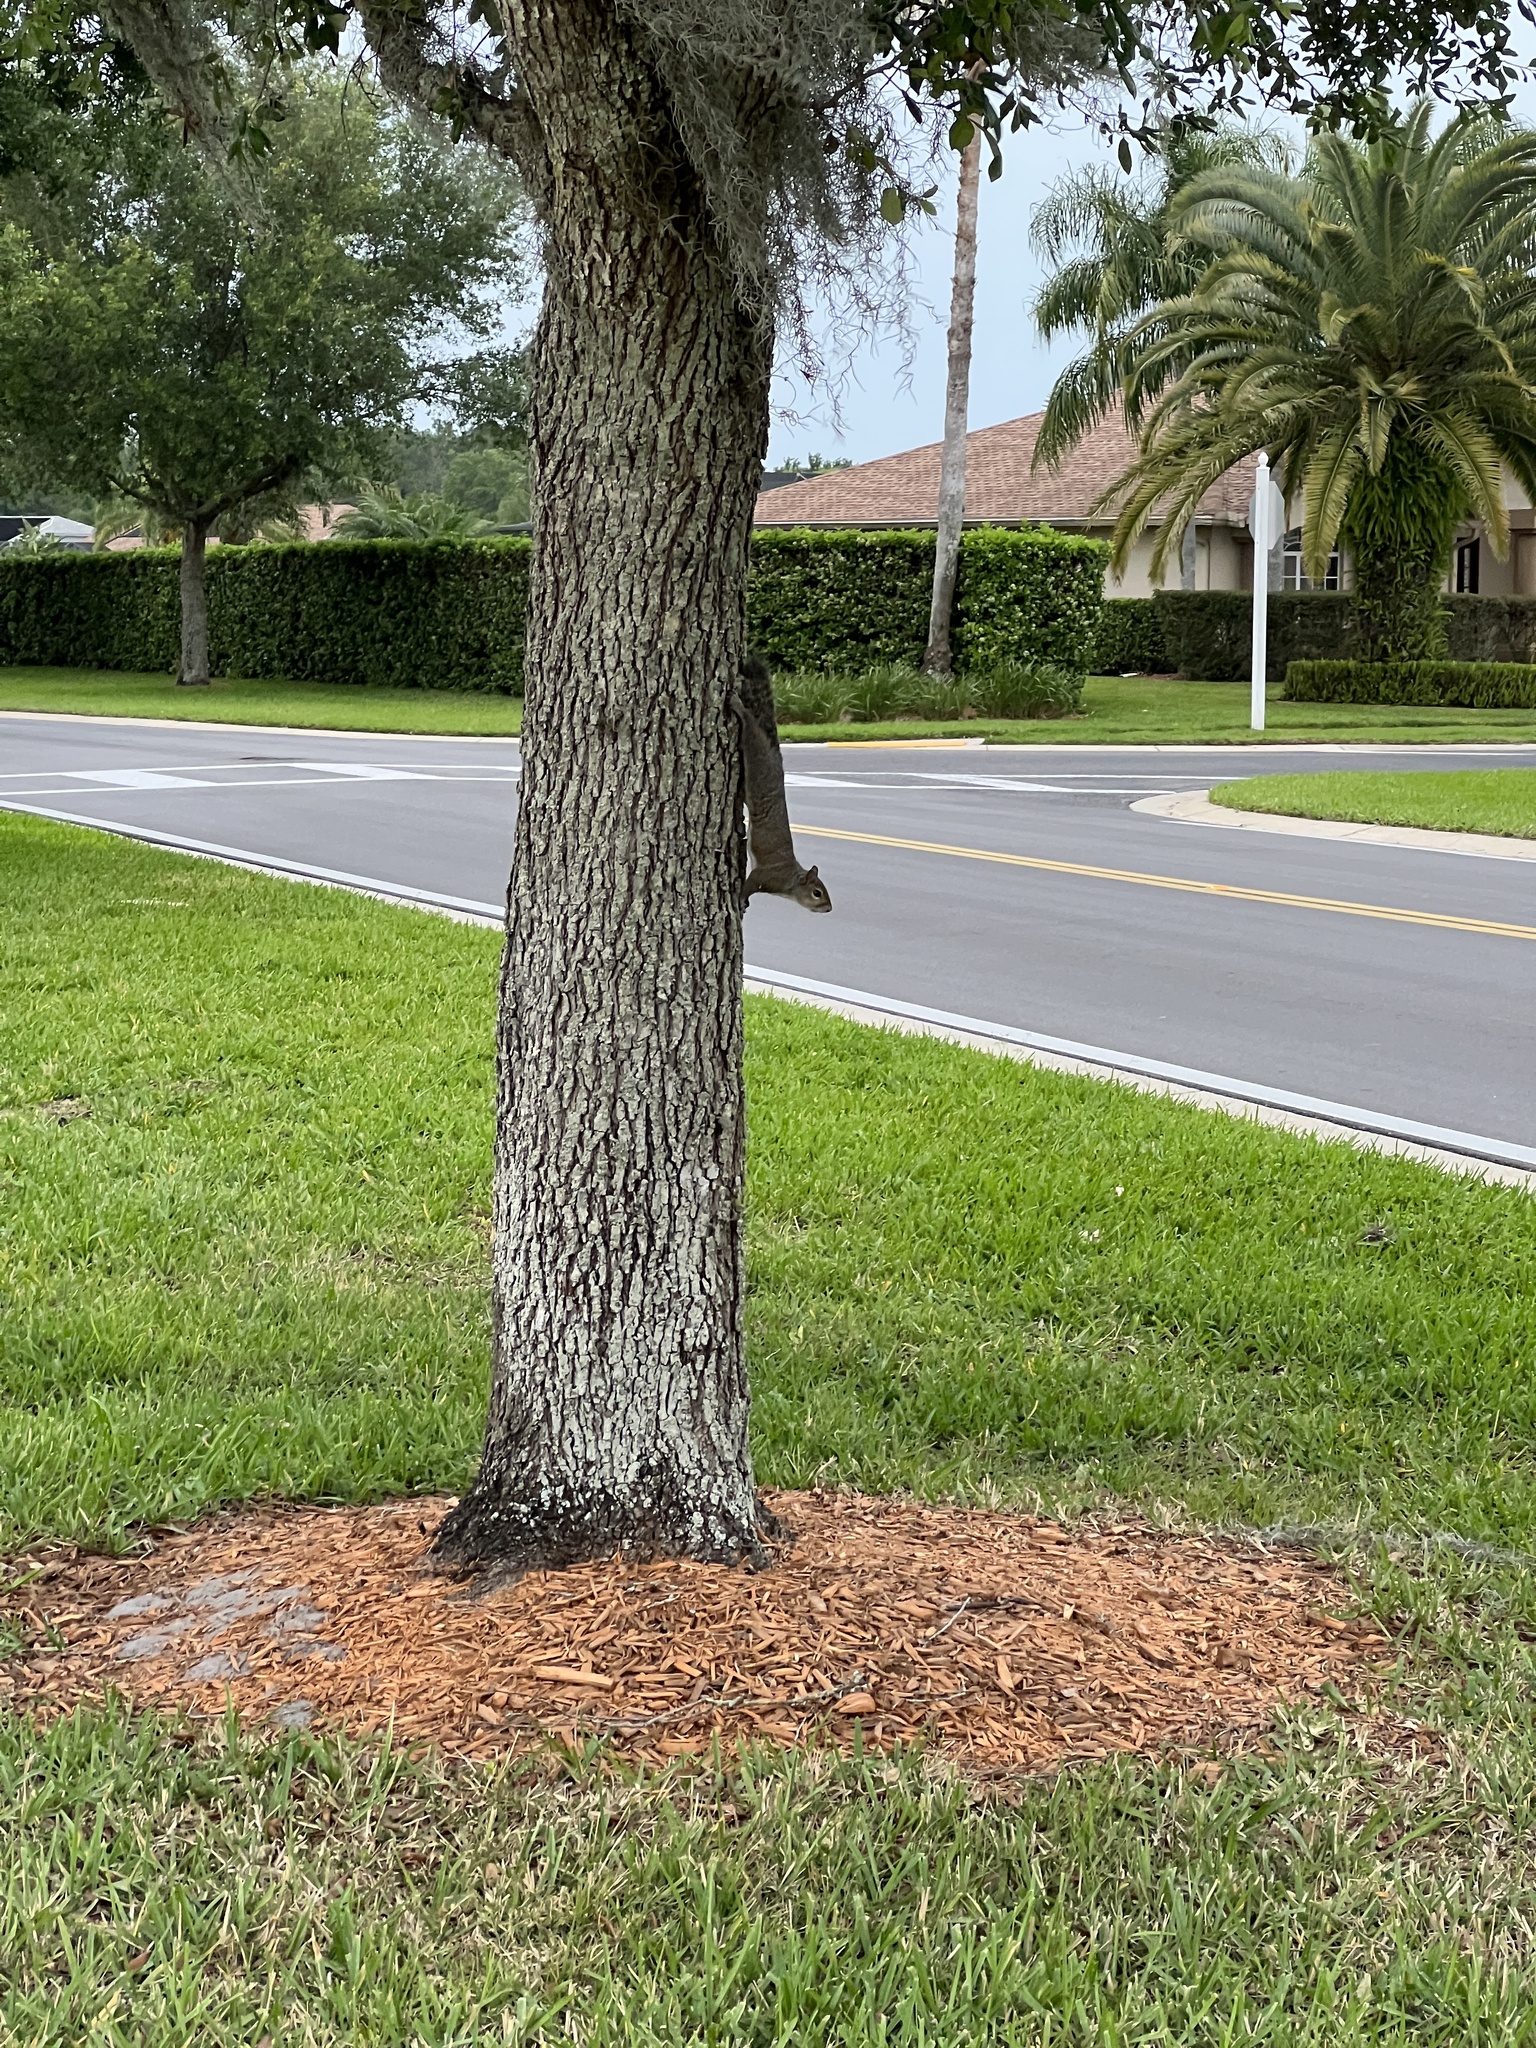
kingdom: Animalia
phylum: Chordata
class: Mammalia
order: Rodentia
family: Sciuridae
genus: Sciurus
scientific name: Sciurus carolinensis
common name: Eastern gray squirrel
